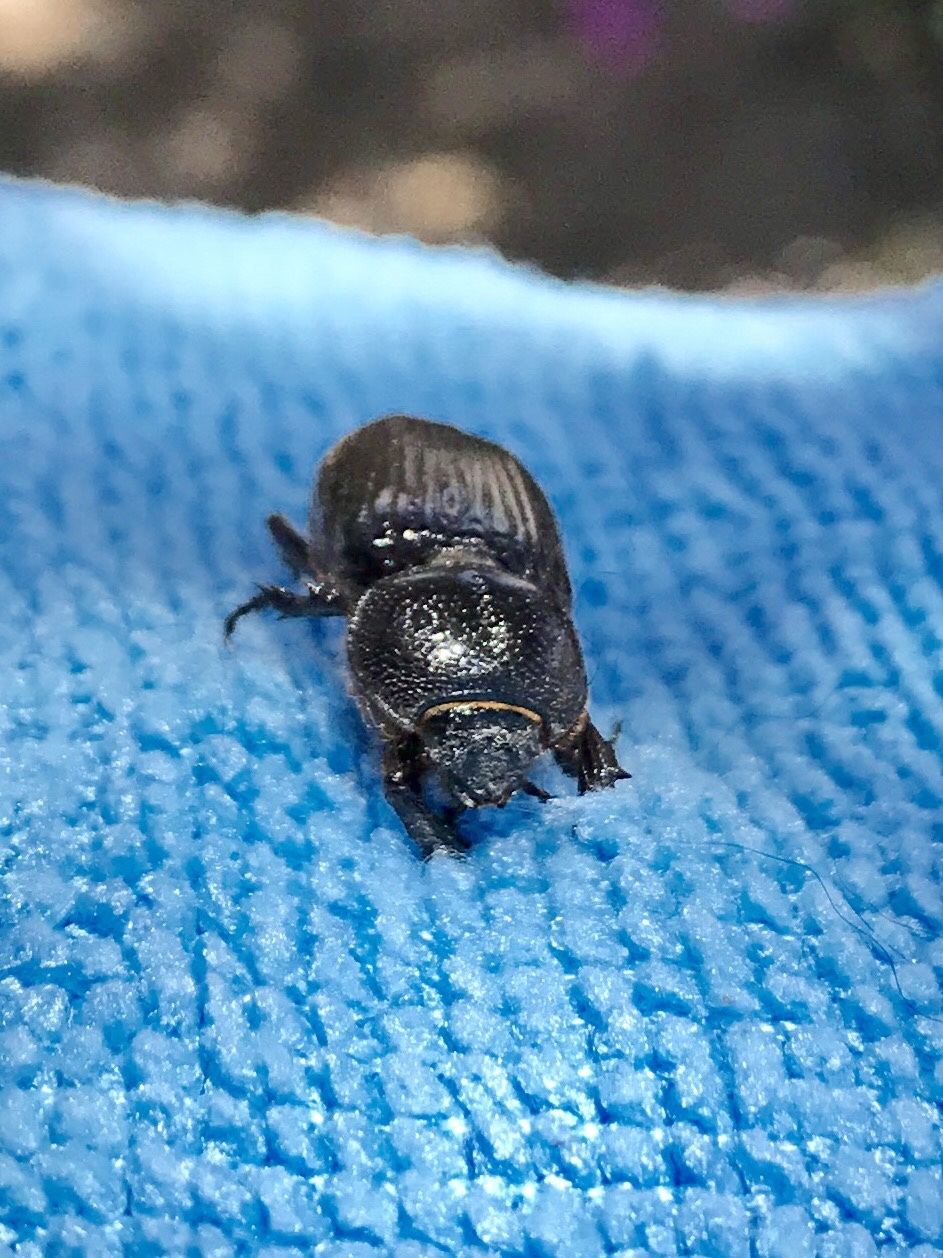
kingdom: Animalia
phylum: Arthropoda
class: Insecta
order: Coleoptera
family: Scarabaeidae
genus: Hemiphileurus
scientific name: Hemiphileurus illatus
